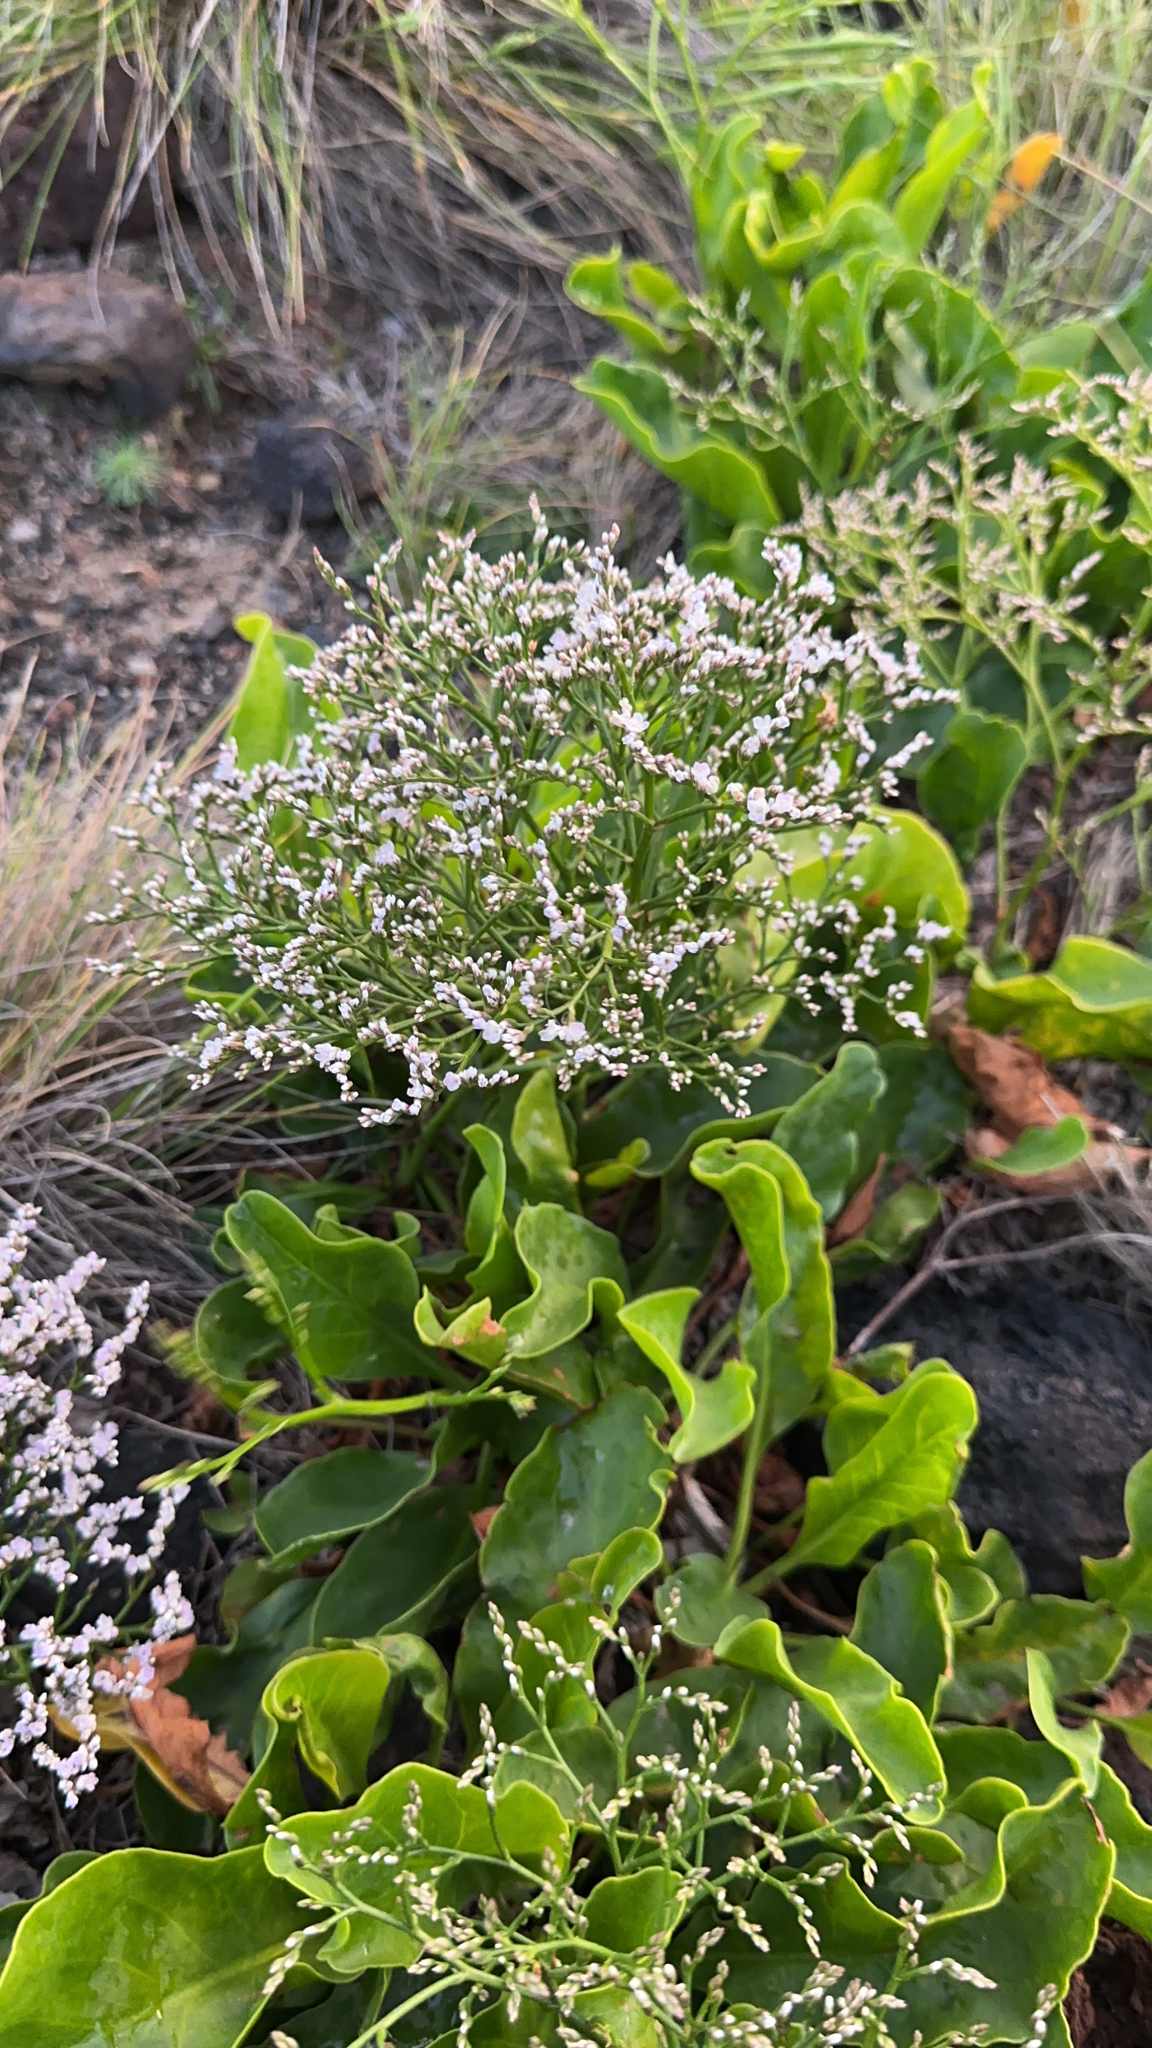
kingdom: Plantae
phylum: Tracheophyta
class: Magnoliopsida
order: Caryophyllales
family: Plumbaginaceae
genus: Limonium
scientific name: Limonium eduardi-diasii
